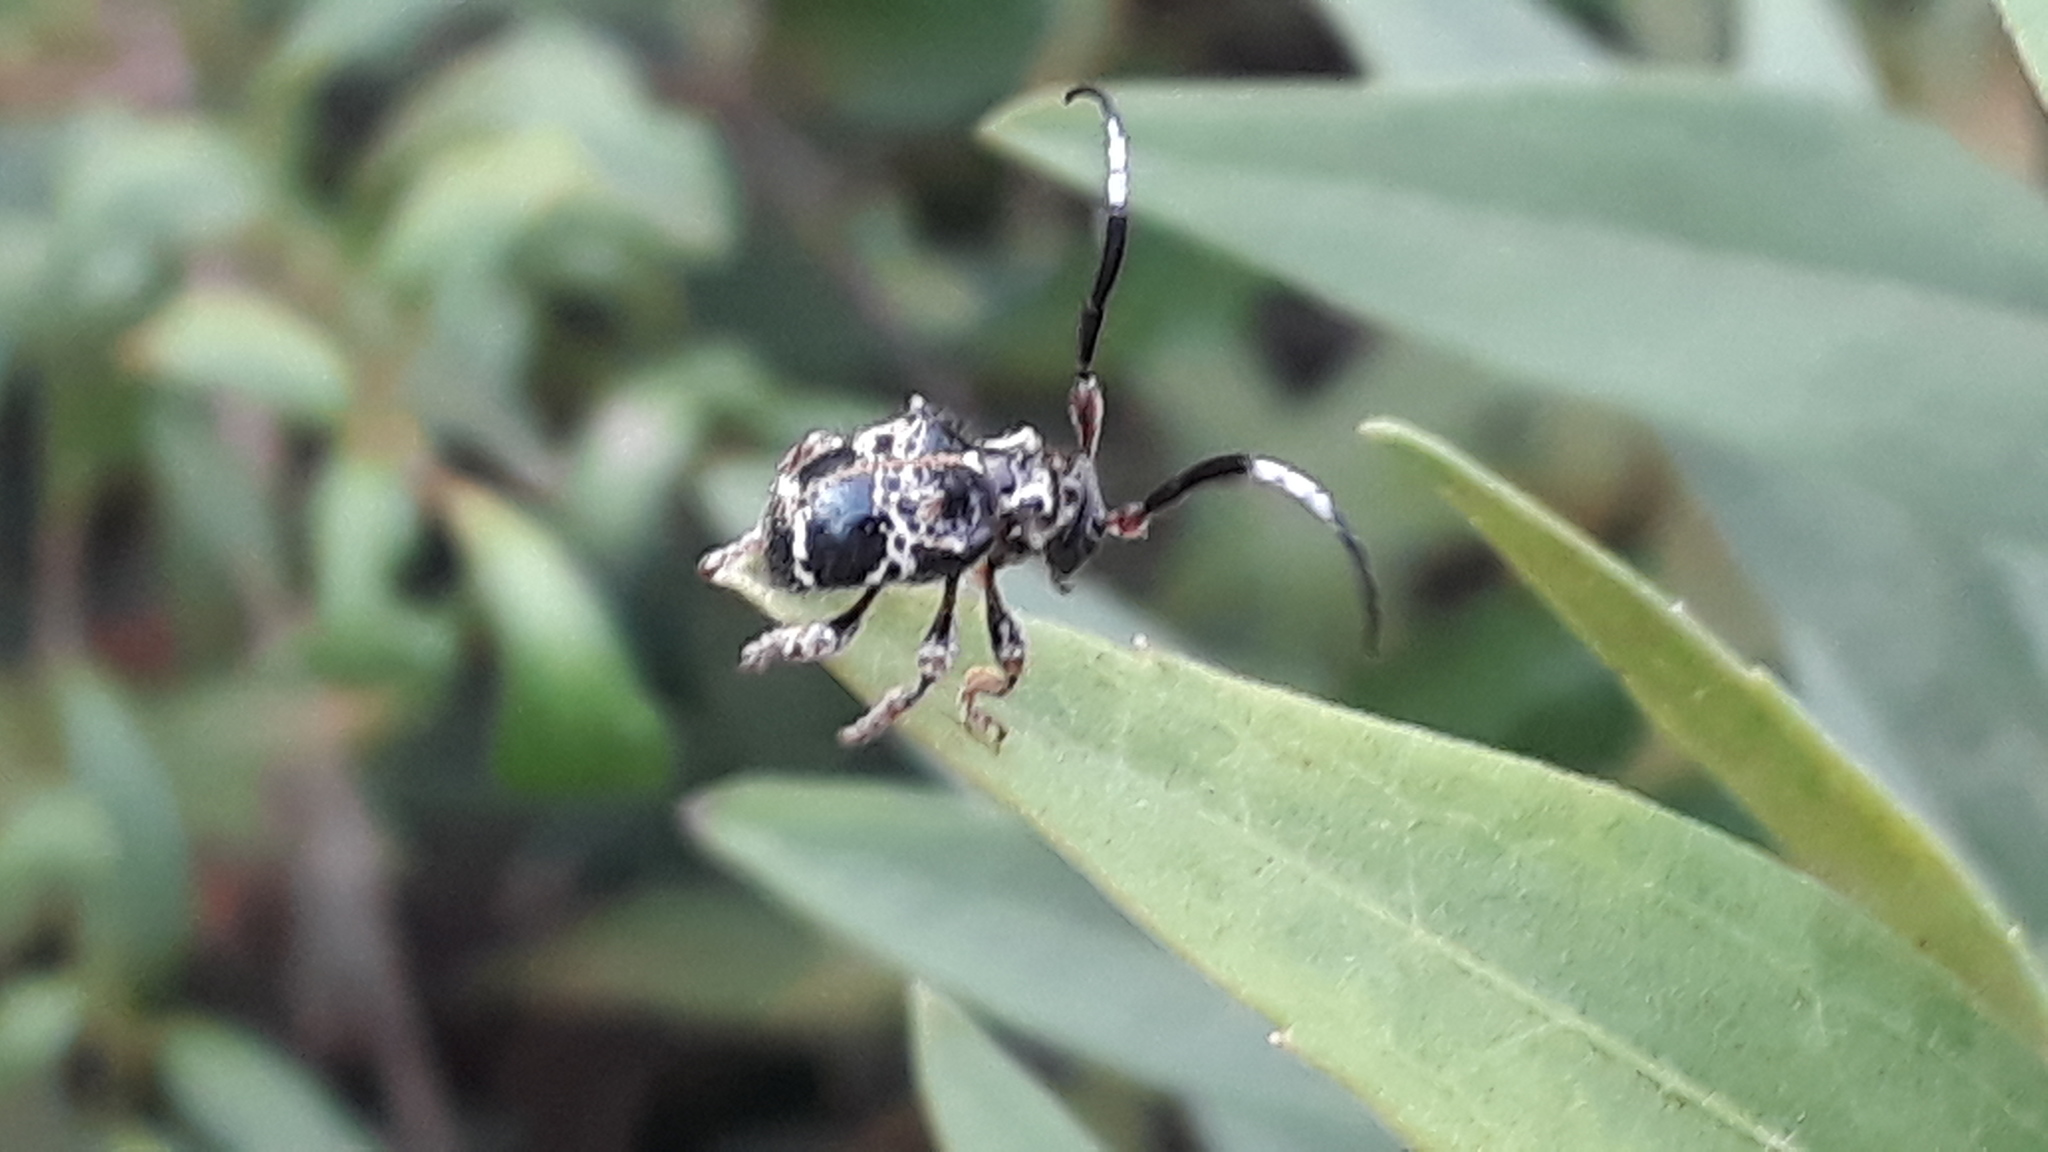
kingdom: Animalia
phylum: Arthropoda
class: Insecta
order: Coleoptera
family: Cerambycidae
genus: Tessarecphora
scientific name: Tessarecphora arachnoides
